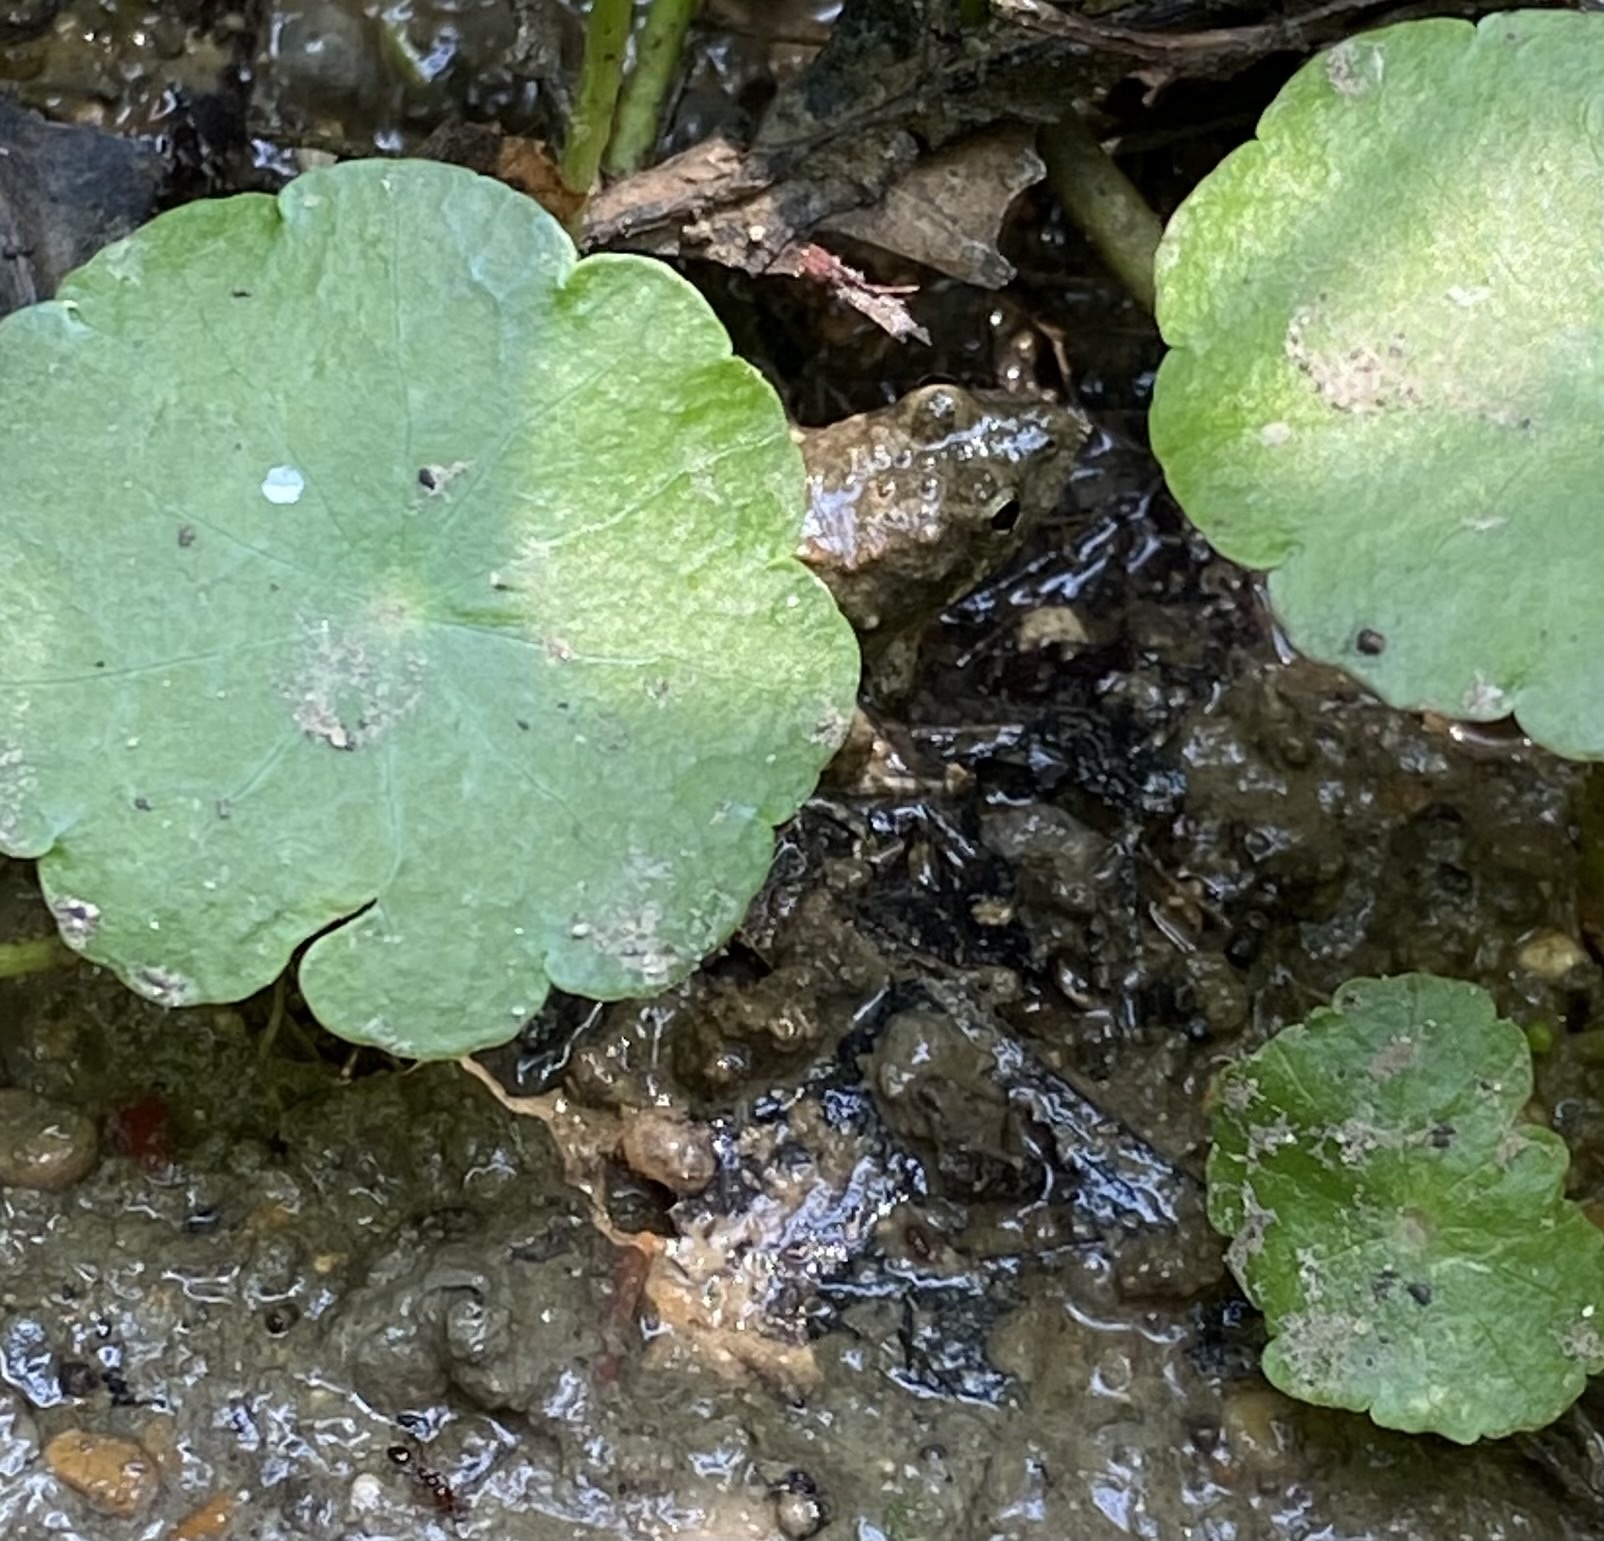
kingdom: Animalia
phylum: Chordata
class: Amphibia
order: Anura
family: Hylidae
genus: Acris
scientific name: Acris blanchardi
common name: Blanchard's cricket frog
